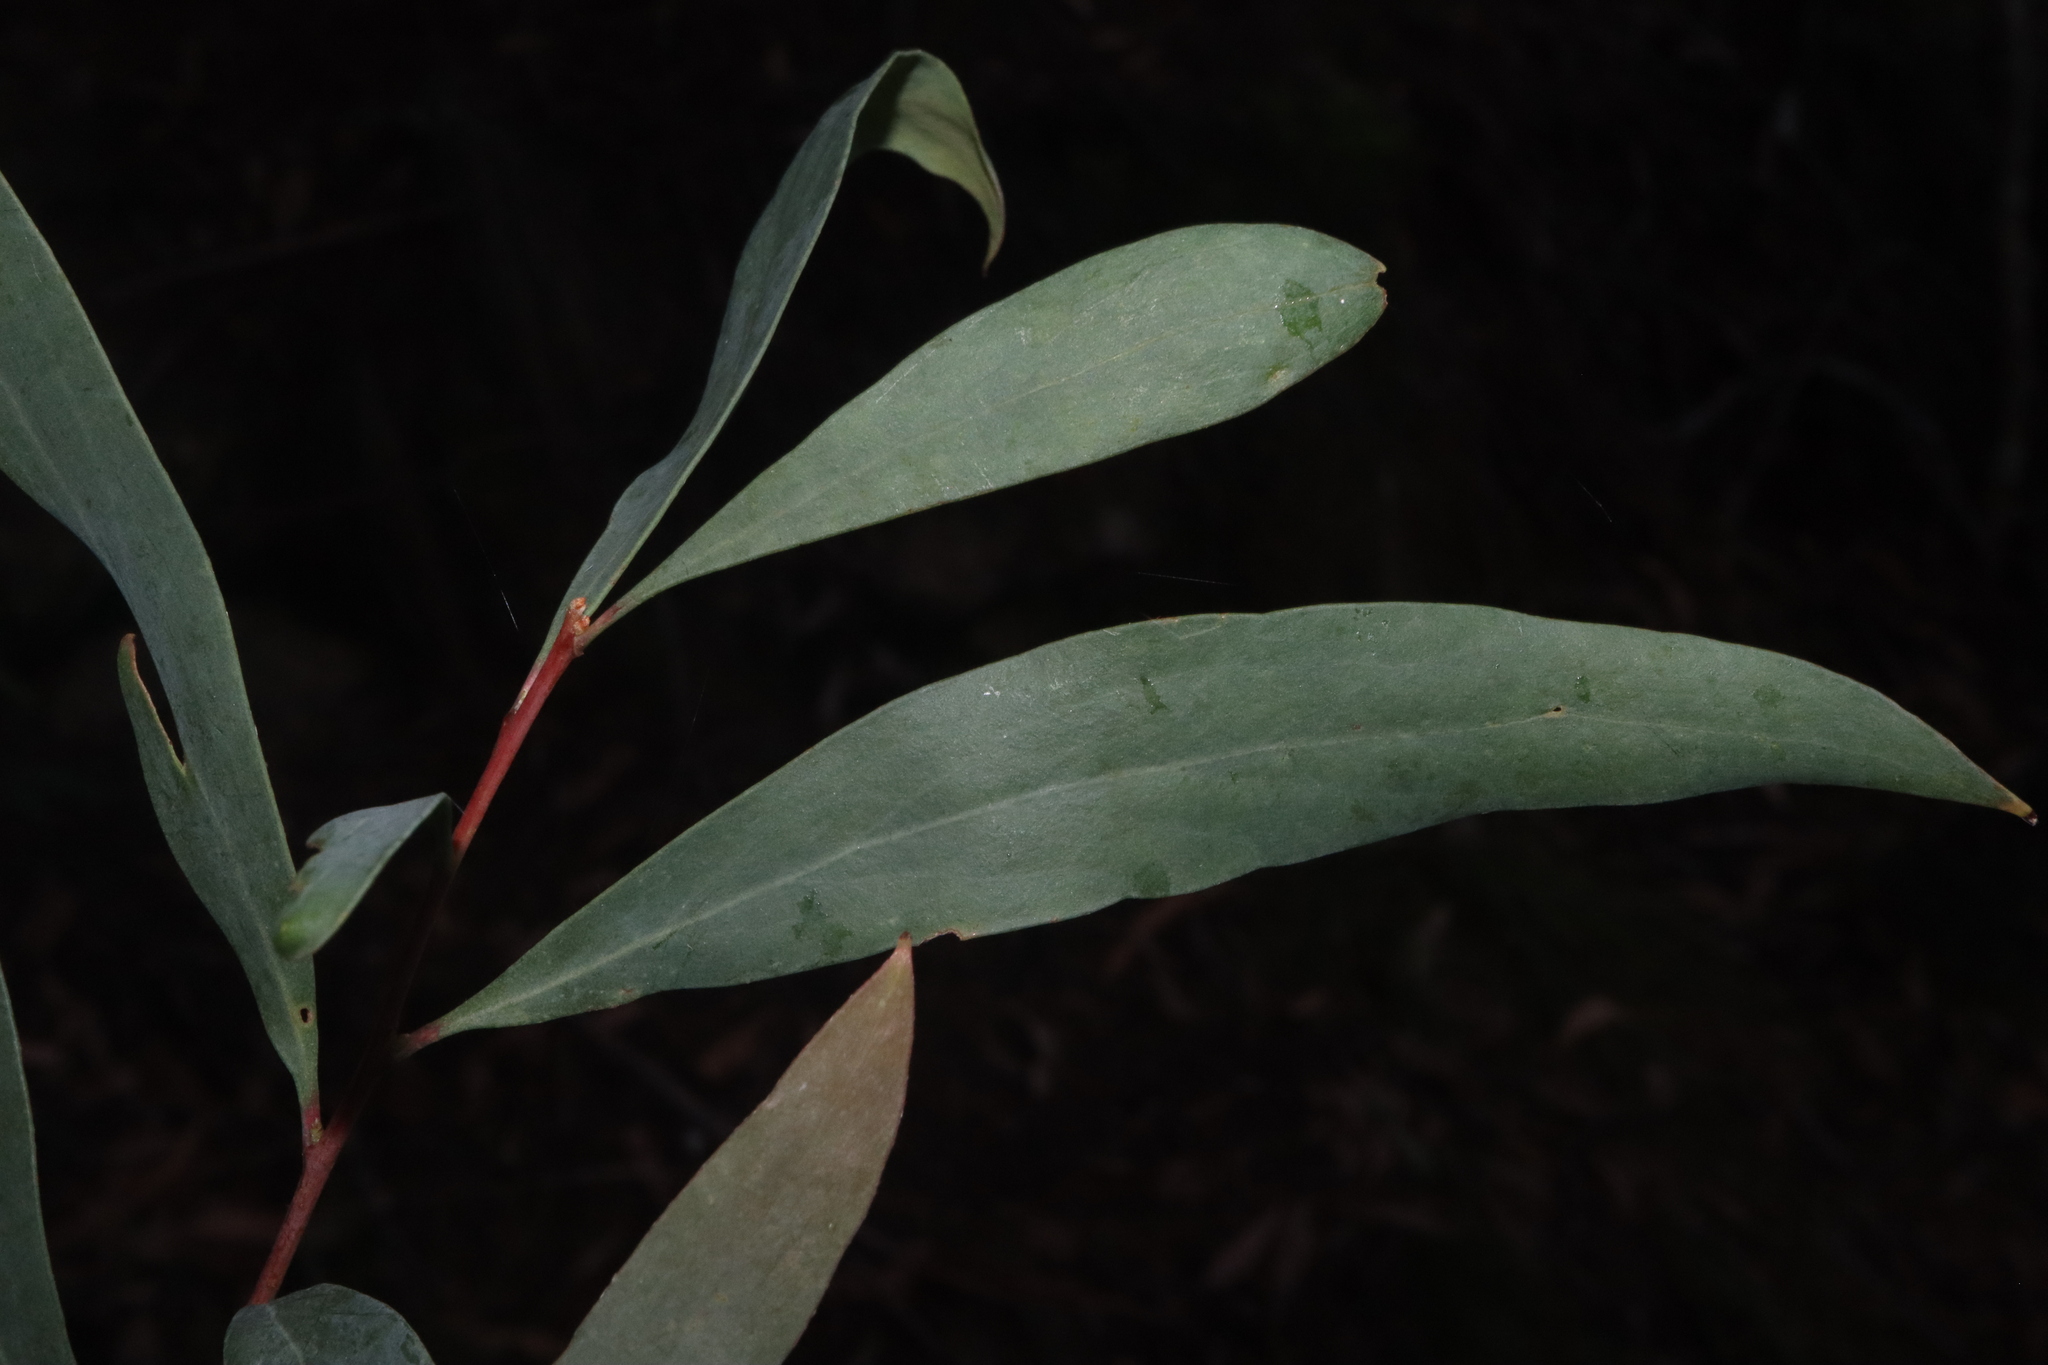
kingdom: Plantae
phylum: Tracheophyta
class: Magnoliopsida
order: Proteales
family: Proteaceae
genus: Hakea
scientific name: Hakea salicifolia
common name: Willow hakea
